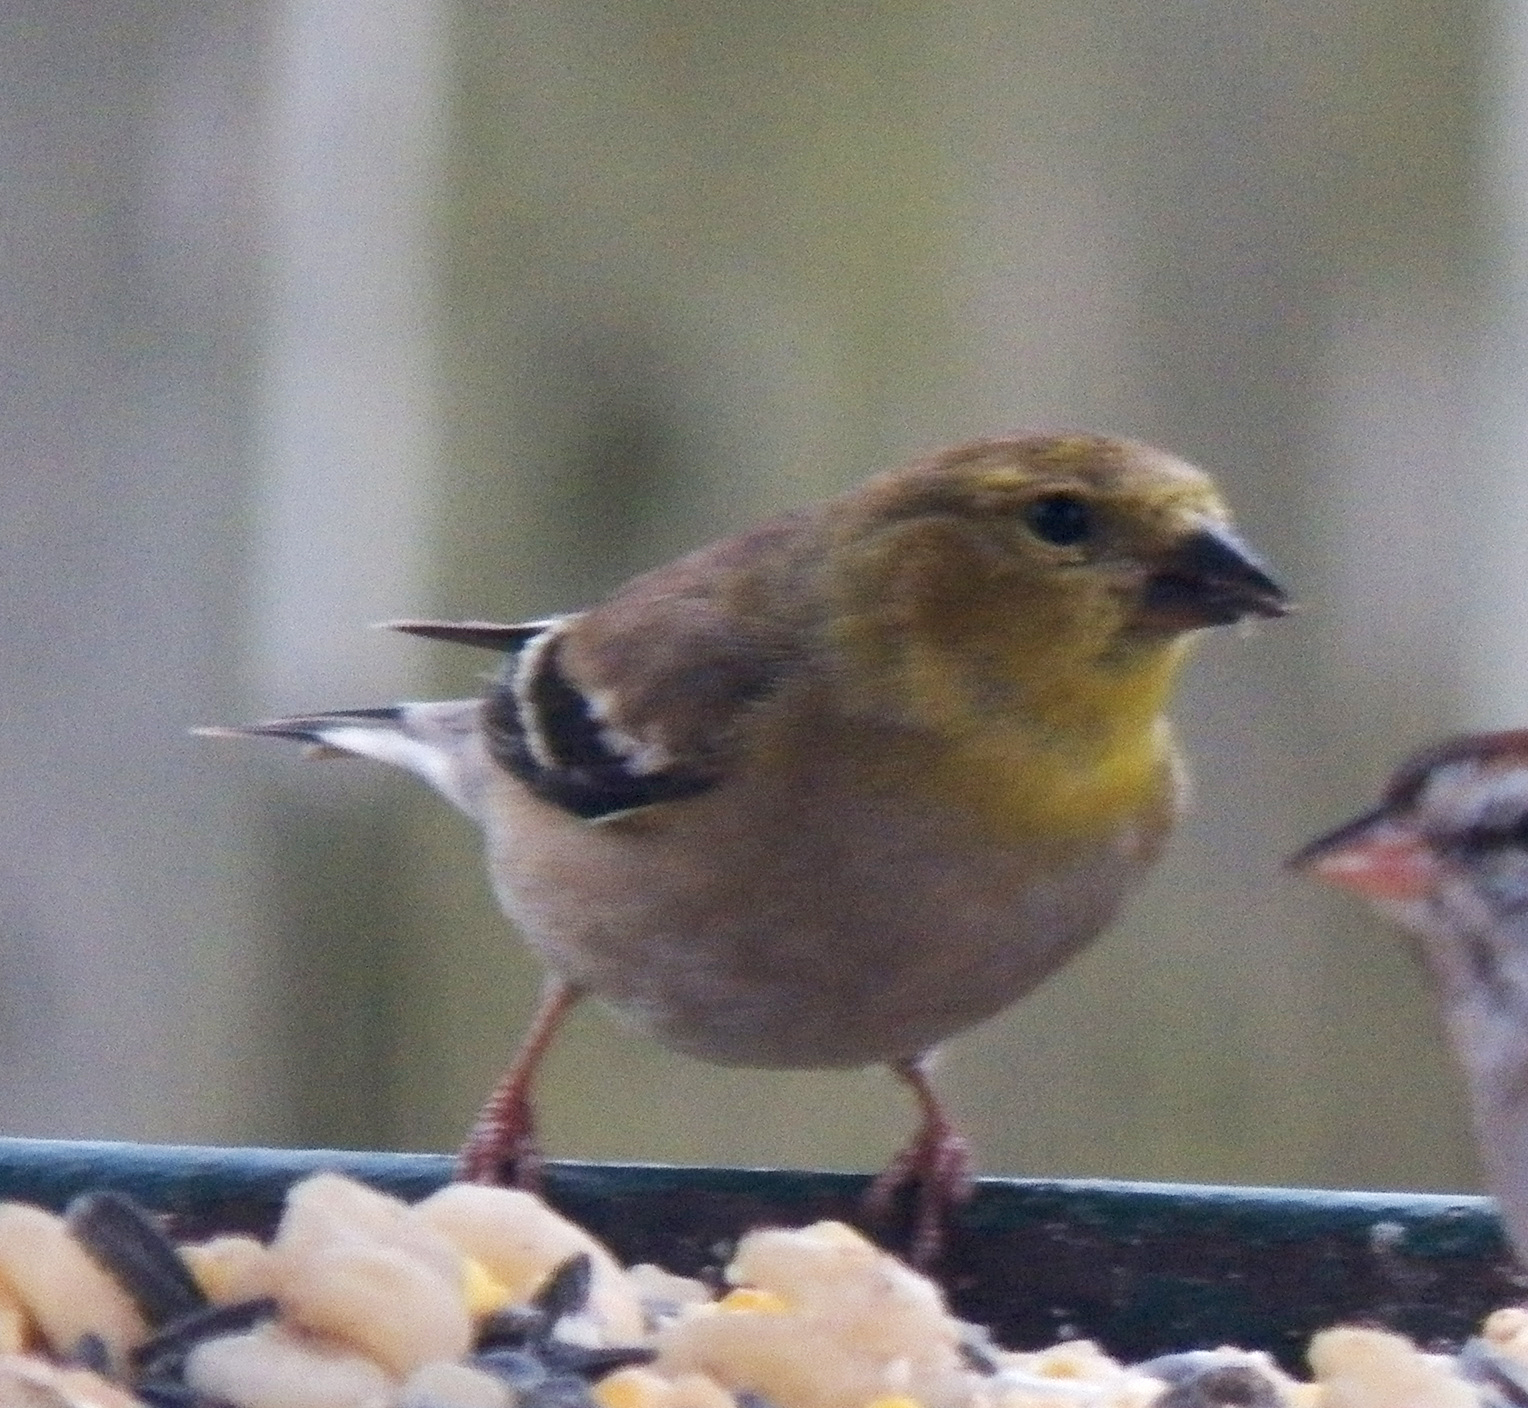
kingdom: Animalia
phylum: Chordata
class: Aves
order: Passeriformes
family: Fringillidae
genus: Spinus
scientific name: Spinus tristis
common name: American goldfinch
